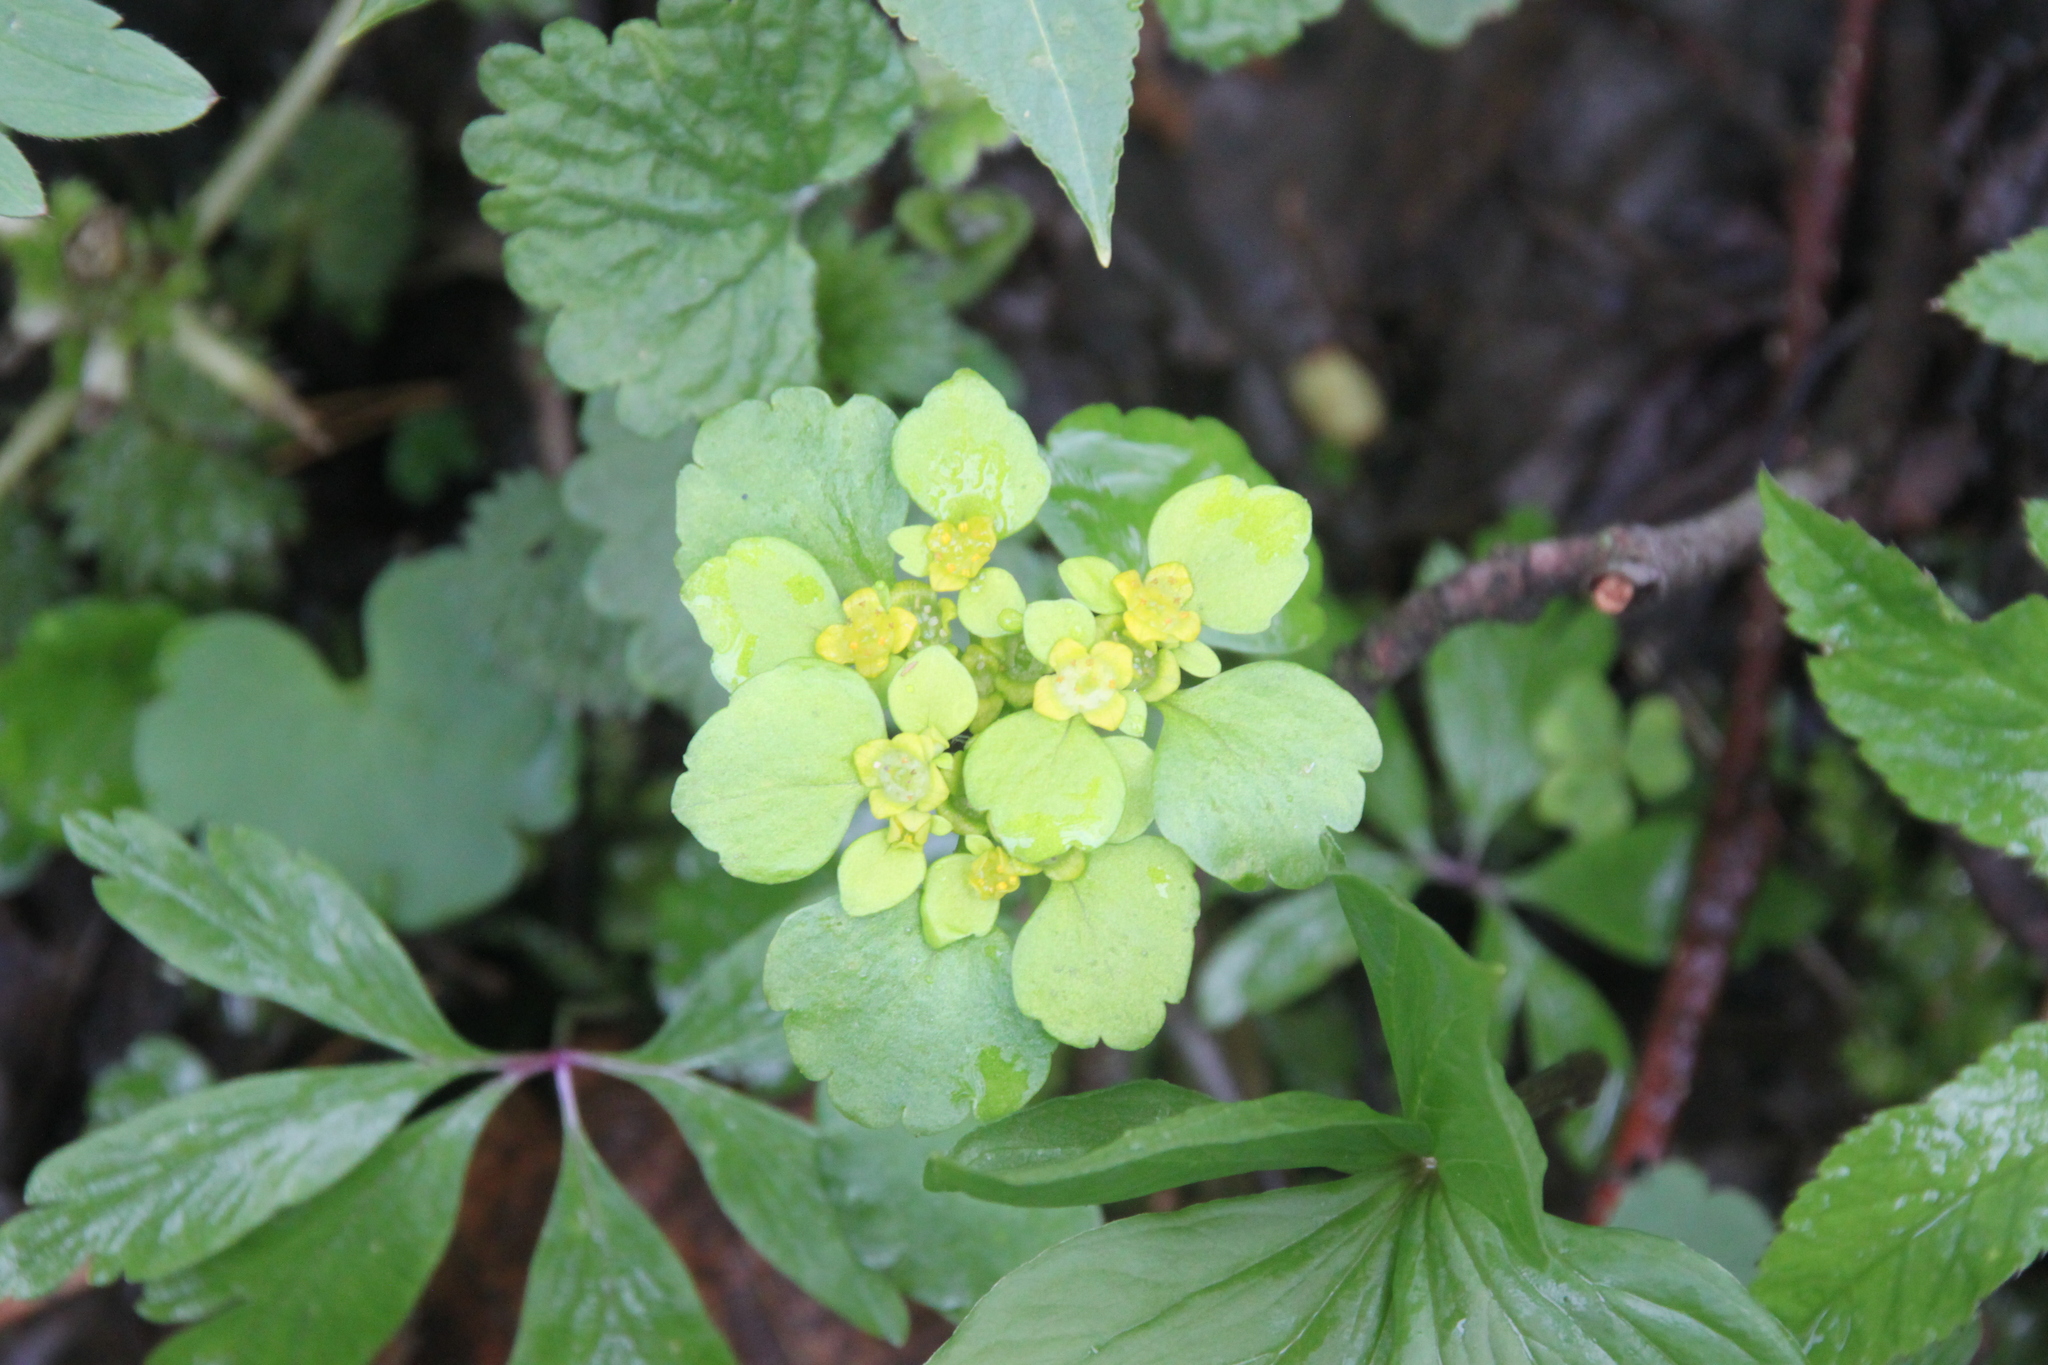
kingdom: Plantae
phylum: Tracheophyta
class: Magnoliopsida
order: Saxifragales
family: Saxifragaceae
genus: Chrysosplenium
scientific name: Chrysosplenium alternifolium
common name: Alternate-leaved golden-saxifrage
